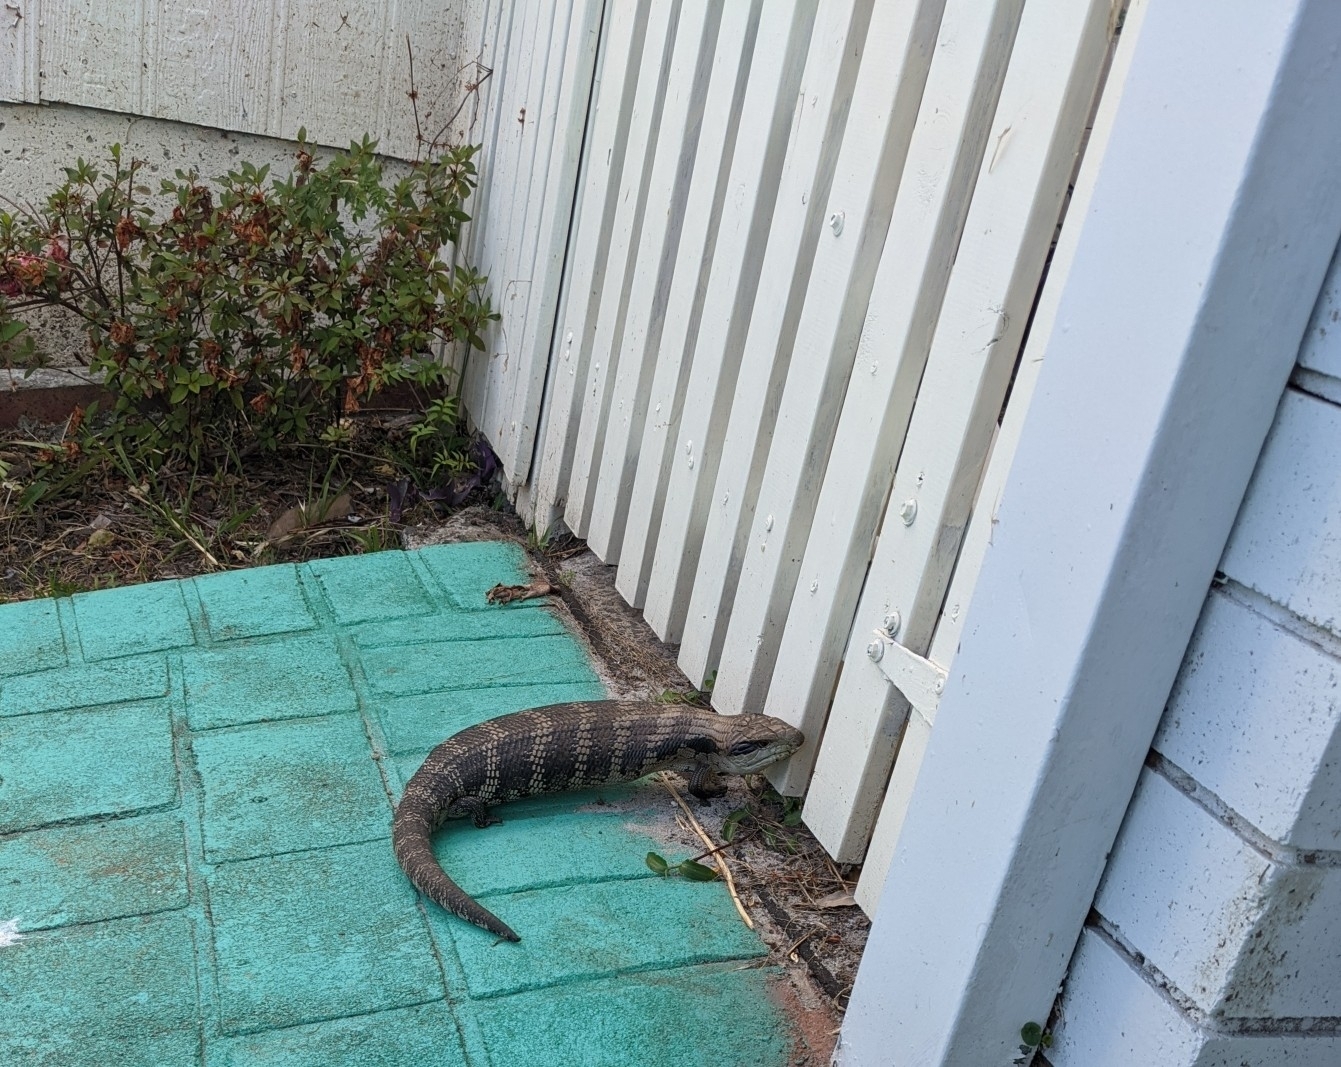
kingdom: Animalia
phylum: Chordata
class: Squamata
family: Scincidae
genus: Tiliqua
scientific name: Tiliqua scincoides
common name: Common bluetongue
